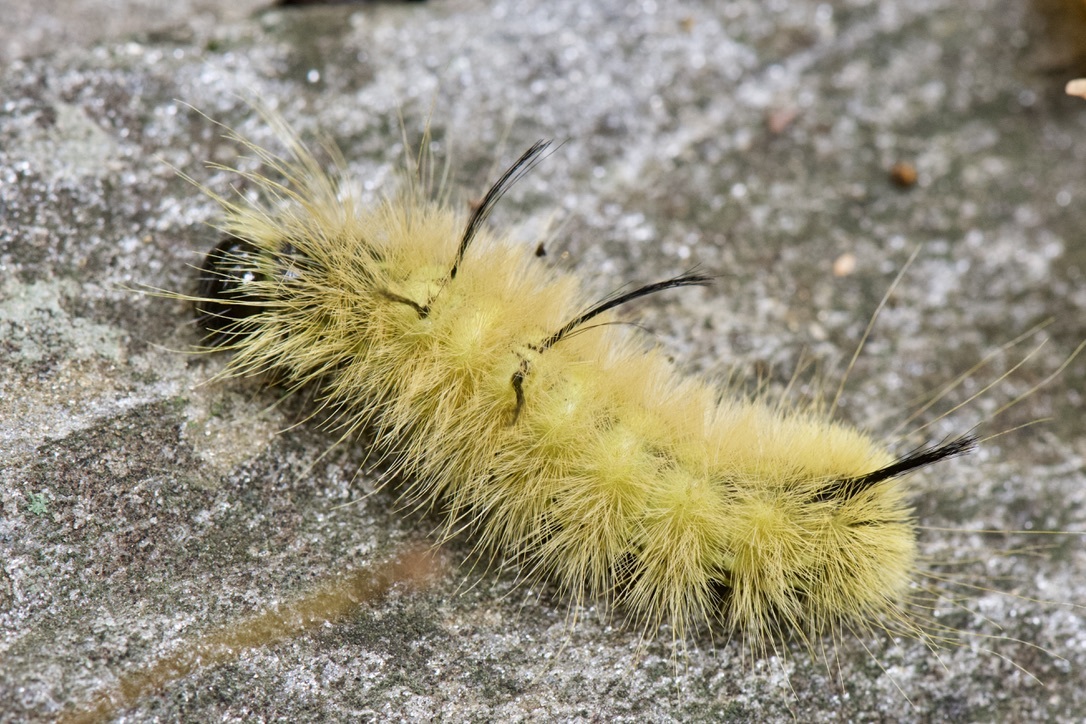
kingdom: Animalia
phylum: Arthropoda
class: Insecta
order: Lepidoptera
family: Noctuidae
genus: Acronicta
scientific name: Acronicta americana
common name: American dagger
